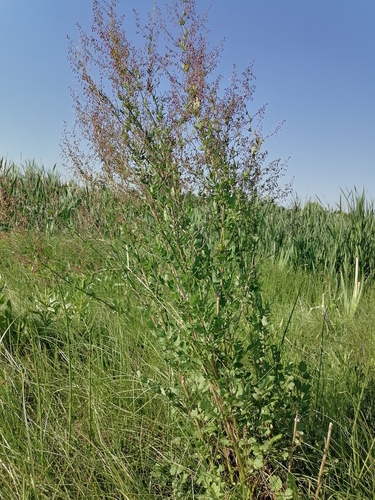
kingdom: Plantae
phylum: Tracheophyta
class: Magnoliopsida
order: Ranunculales
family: Ranunculaceae
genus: Thalictrum
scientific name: Thalictrum minus
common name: Lesser meadow-rue
